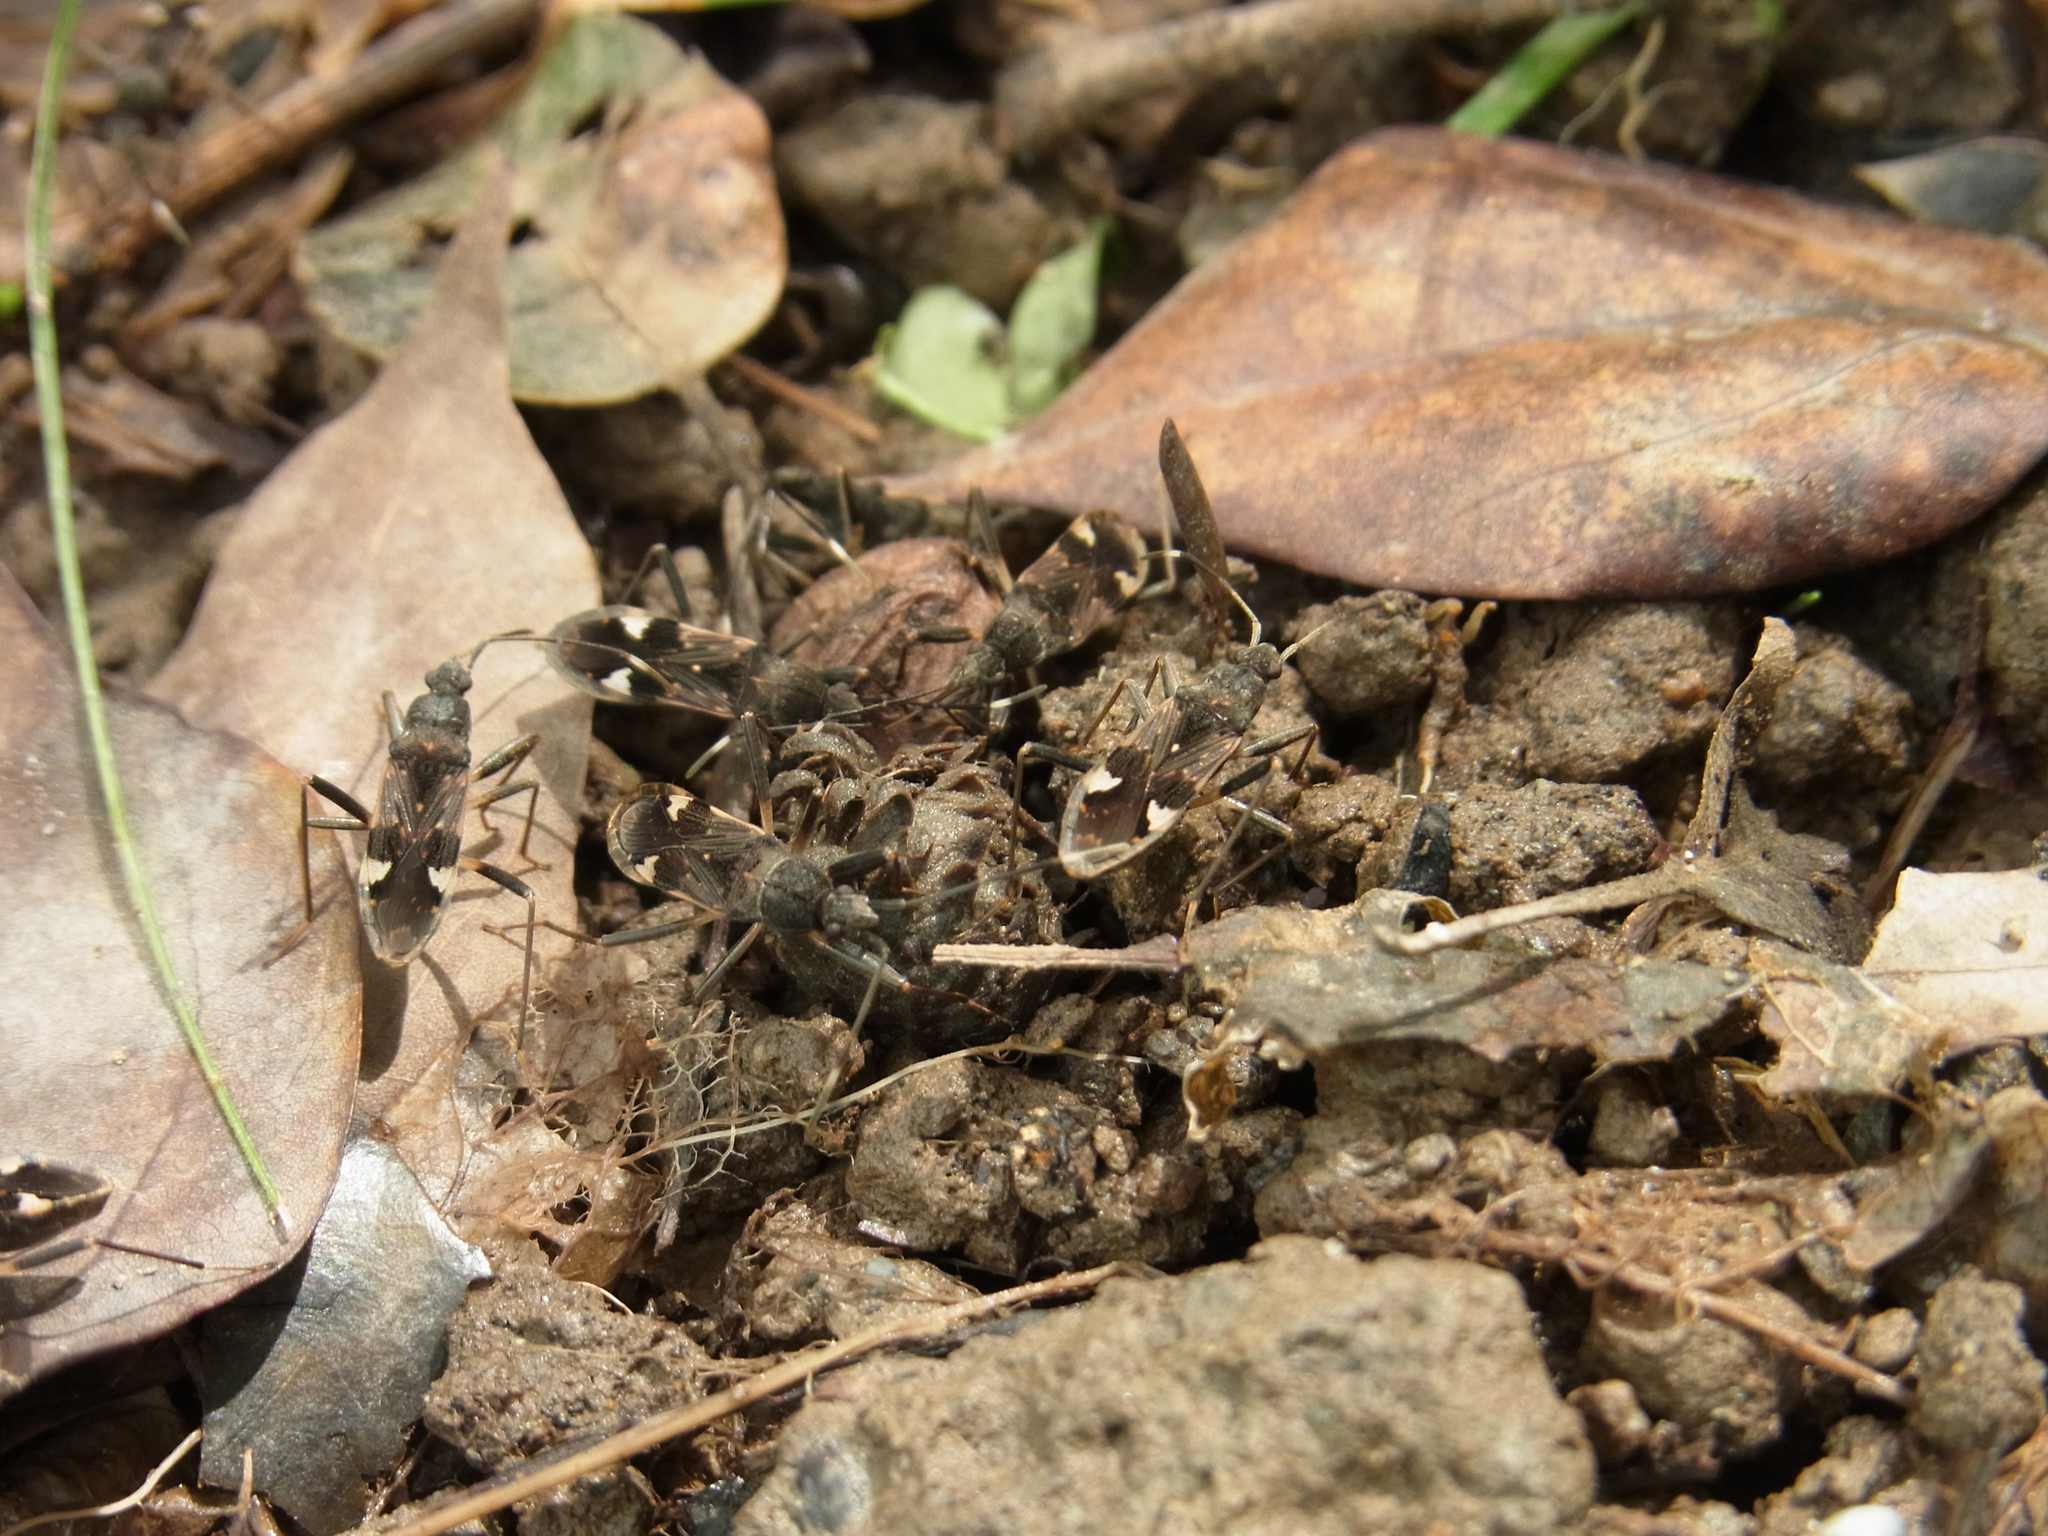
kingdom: Animalia
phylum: Arthropoda
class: Insecta
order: Hemiptera
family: Rhyparochromidae
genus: Metochus
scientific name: Metochus abbreviatus
